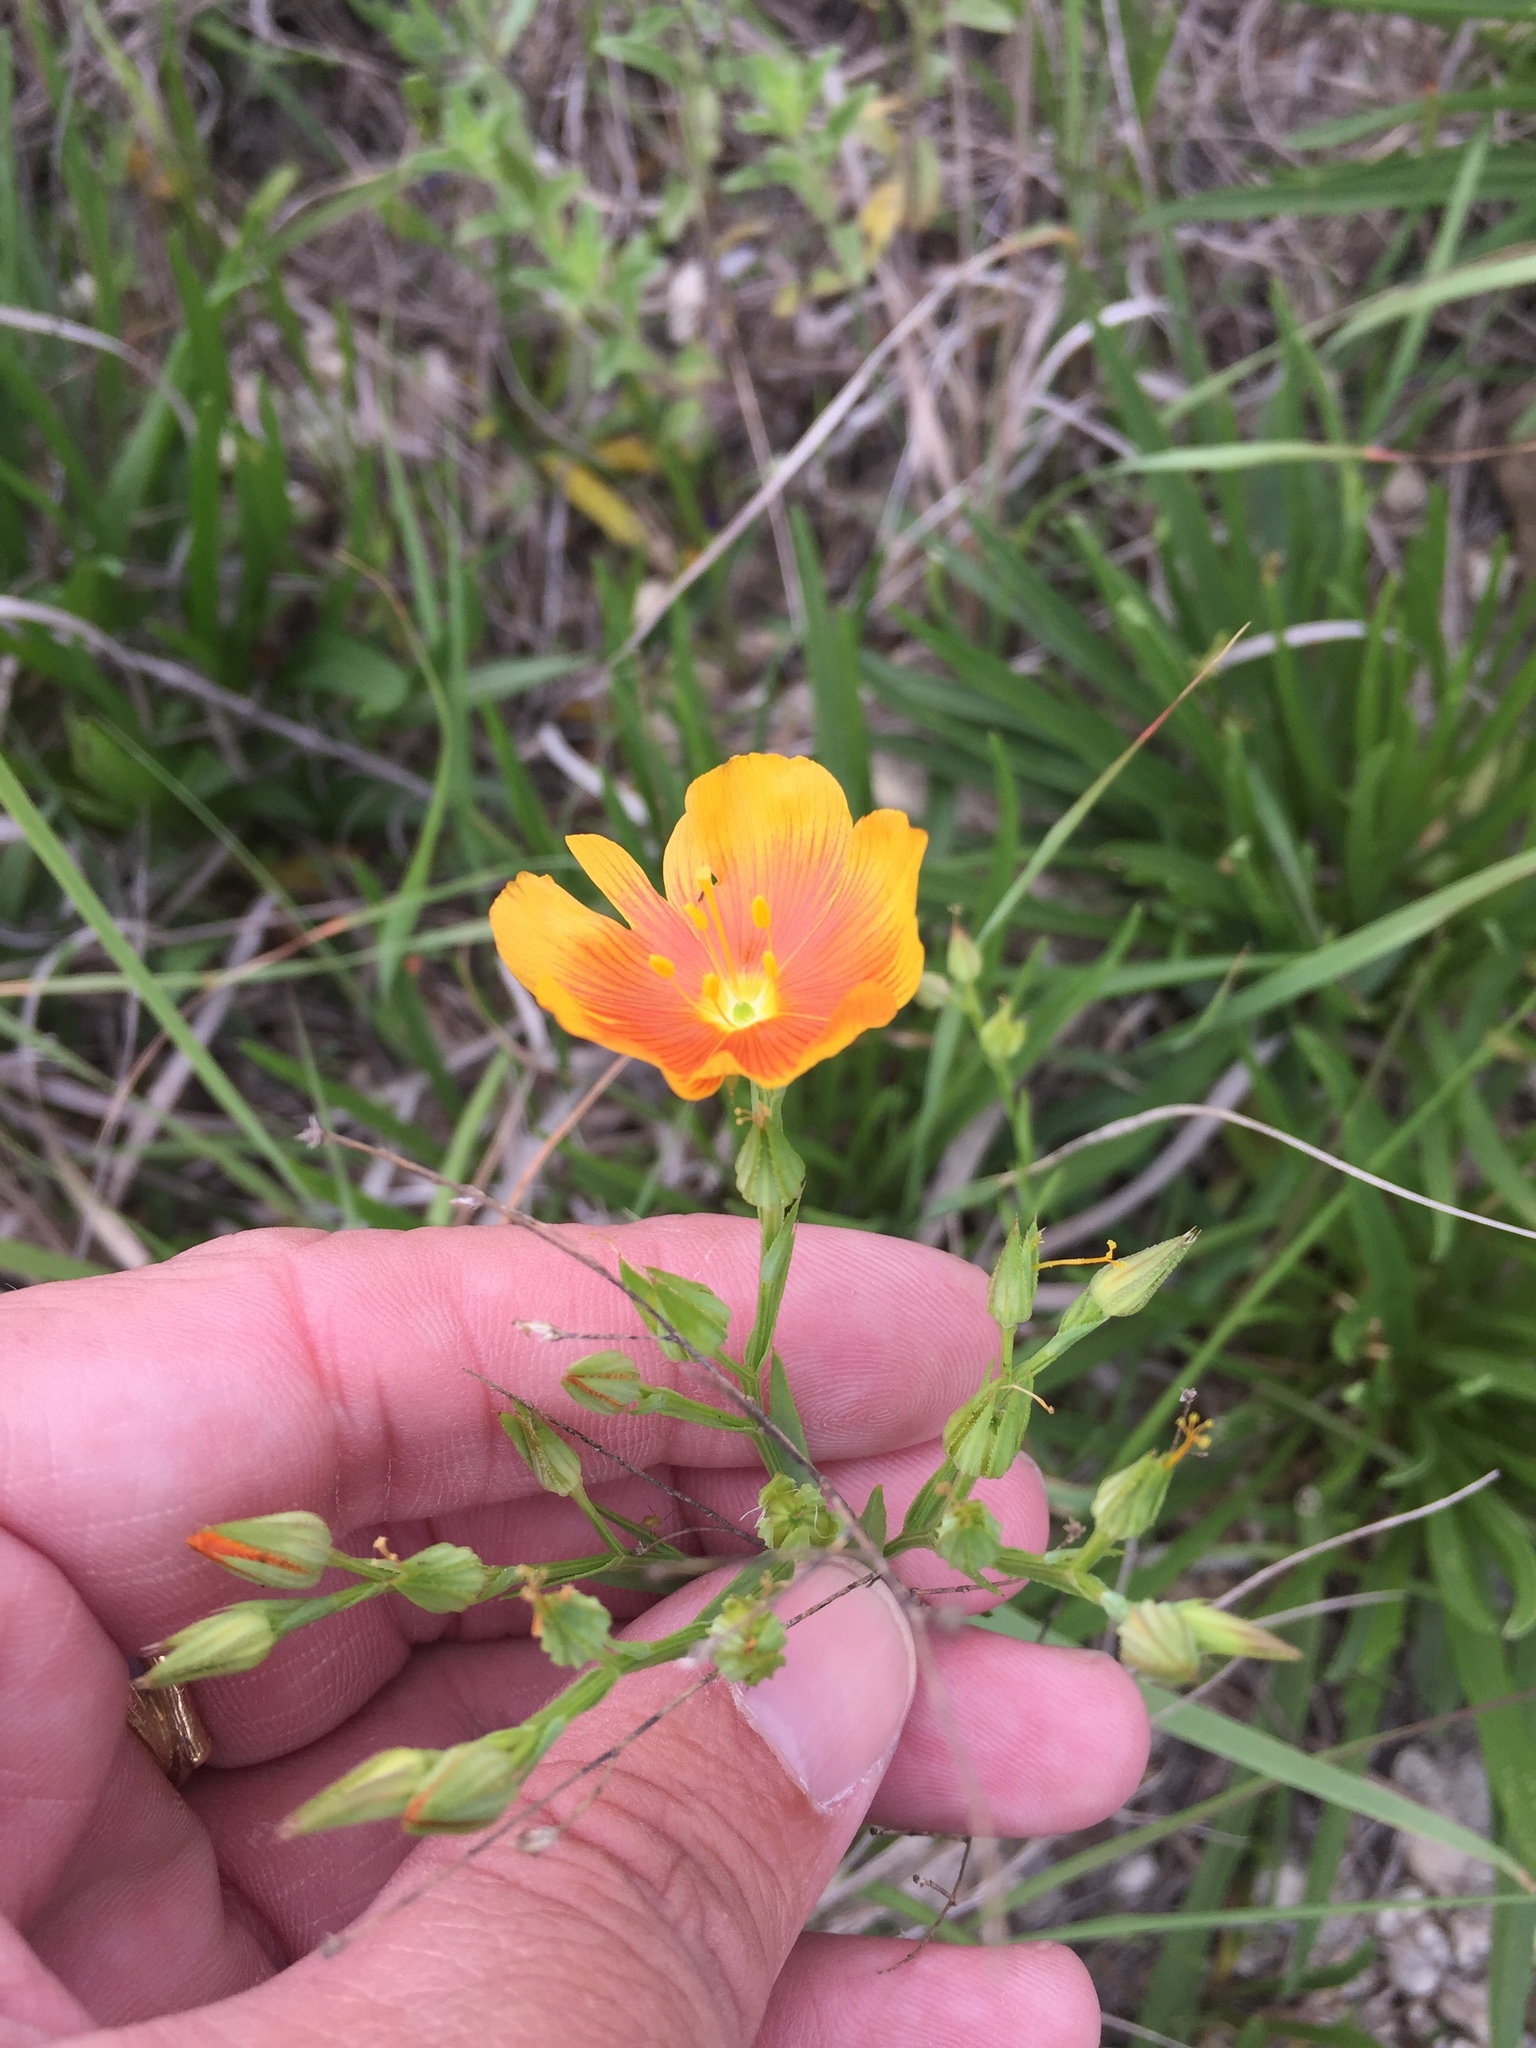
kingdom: Plantae
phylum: Tracheophyta
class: Magnoliopsida
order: Malpighiales
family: Linaceae
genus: Linum
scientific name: Linum rigidum
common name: Stiff-stem flax
